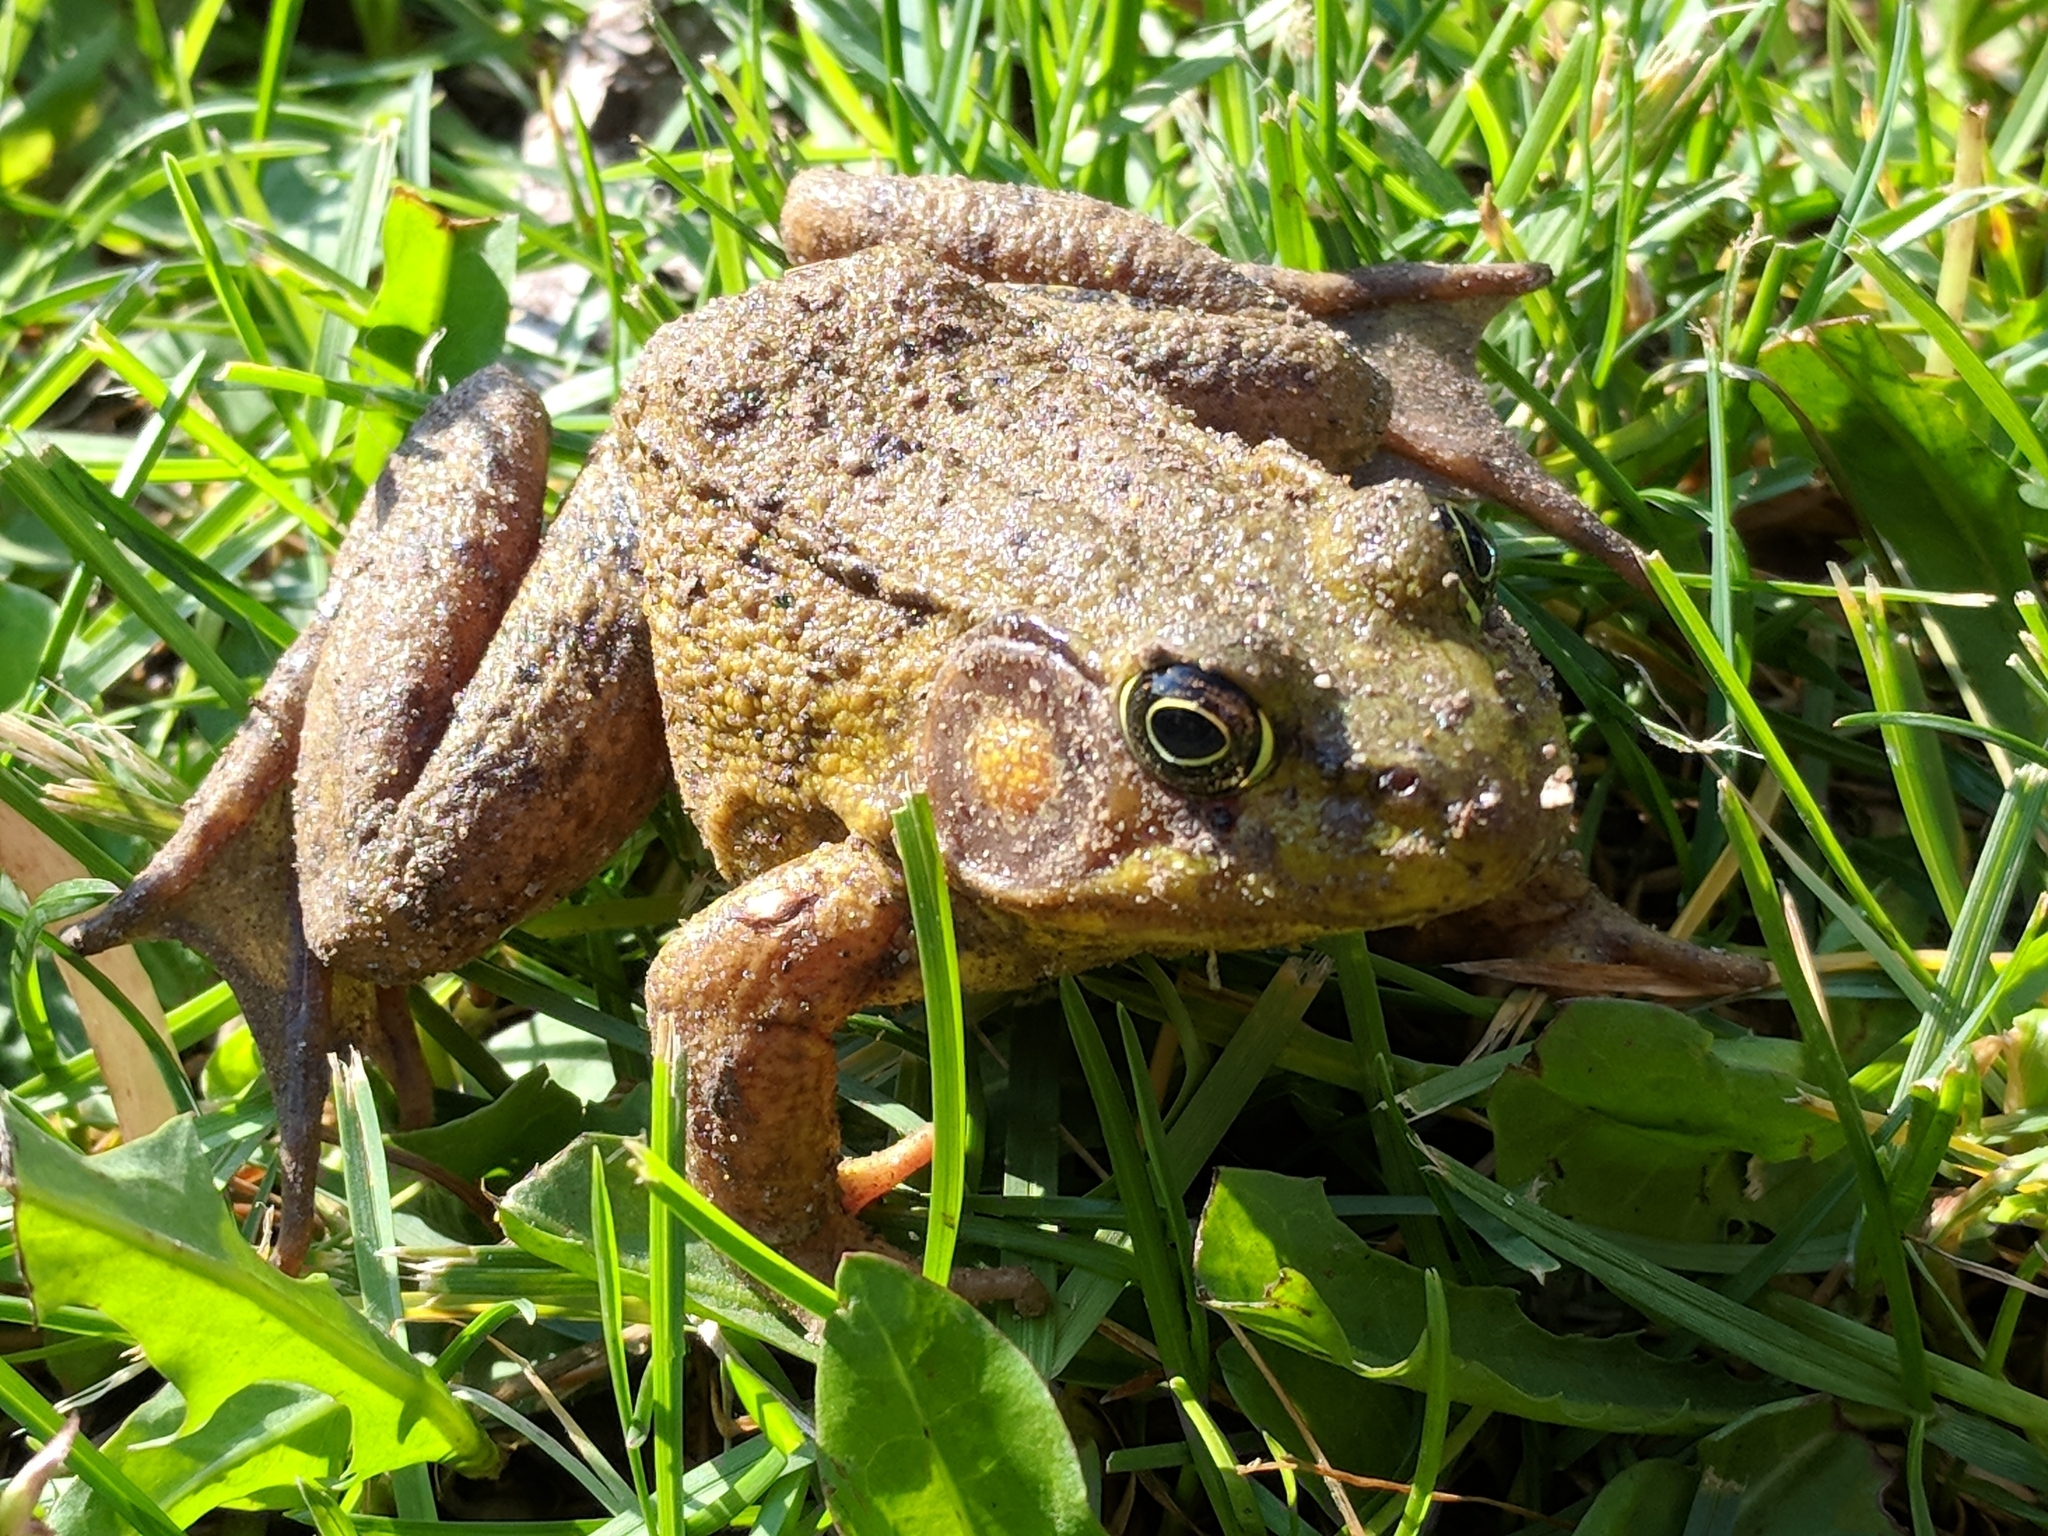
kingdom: Animalia
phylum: Chordata
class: Amphibia
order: Anura
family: Ranidae
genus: Lithobates
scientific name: Lithobates clamitans
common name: Green frog
